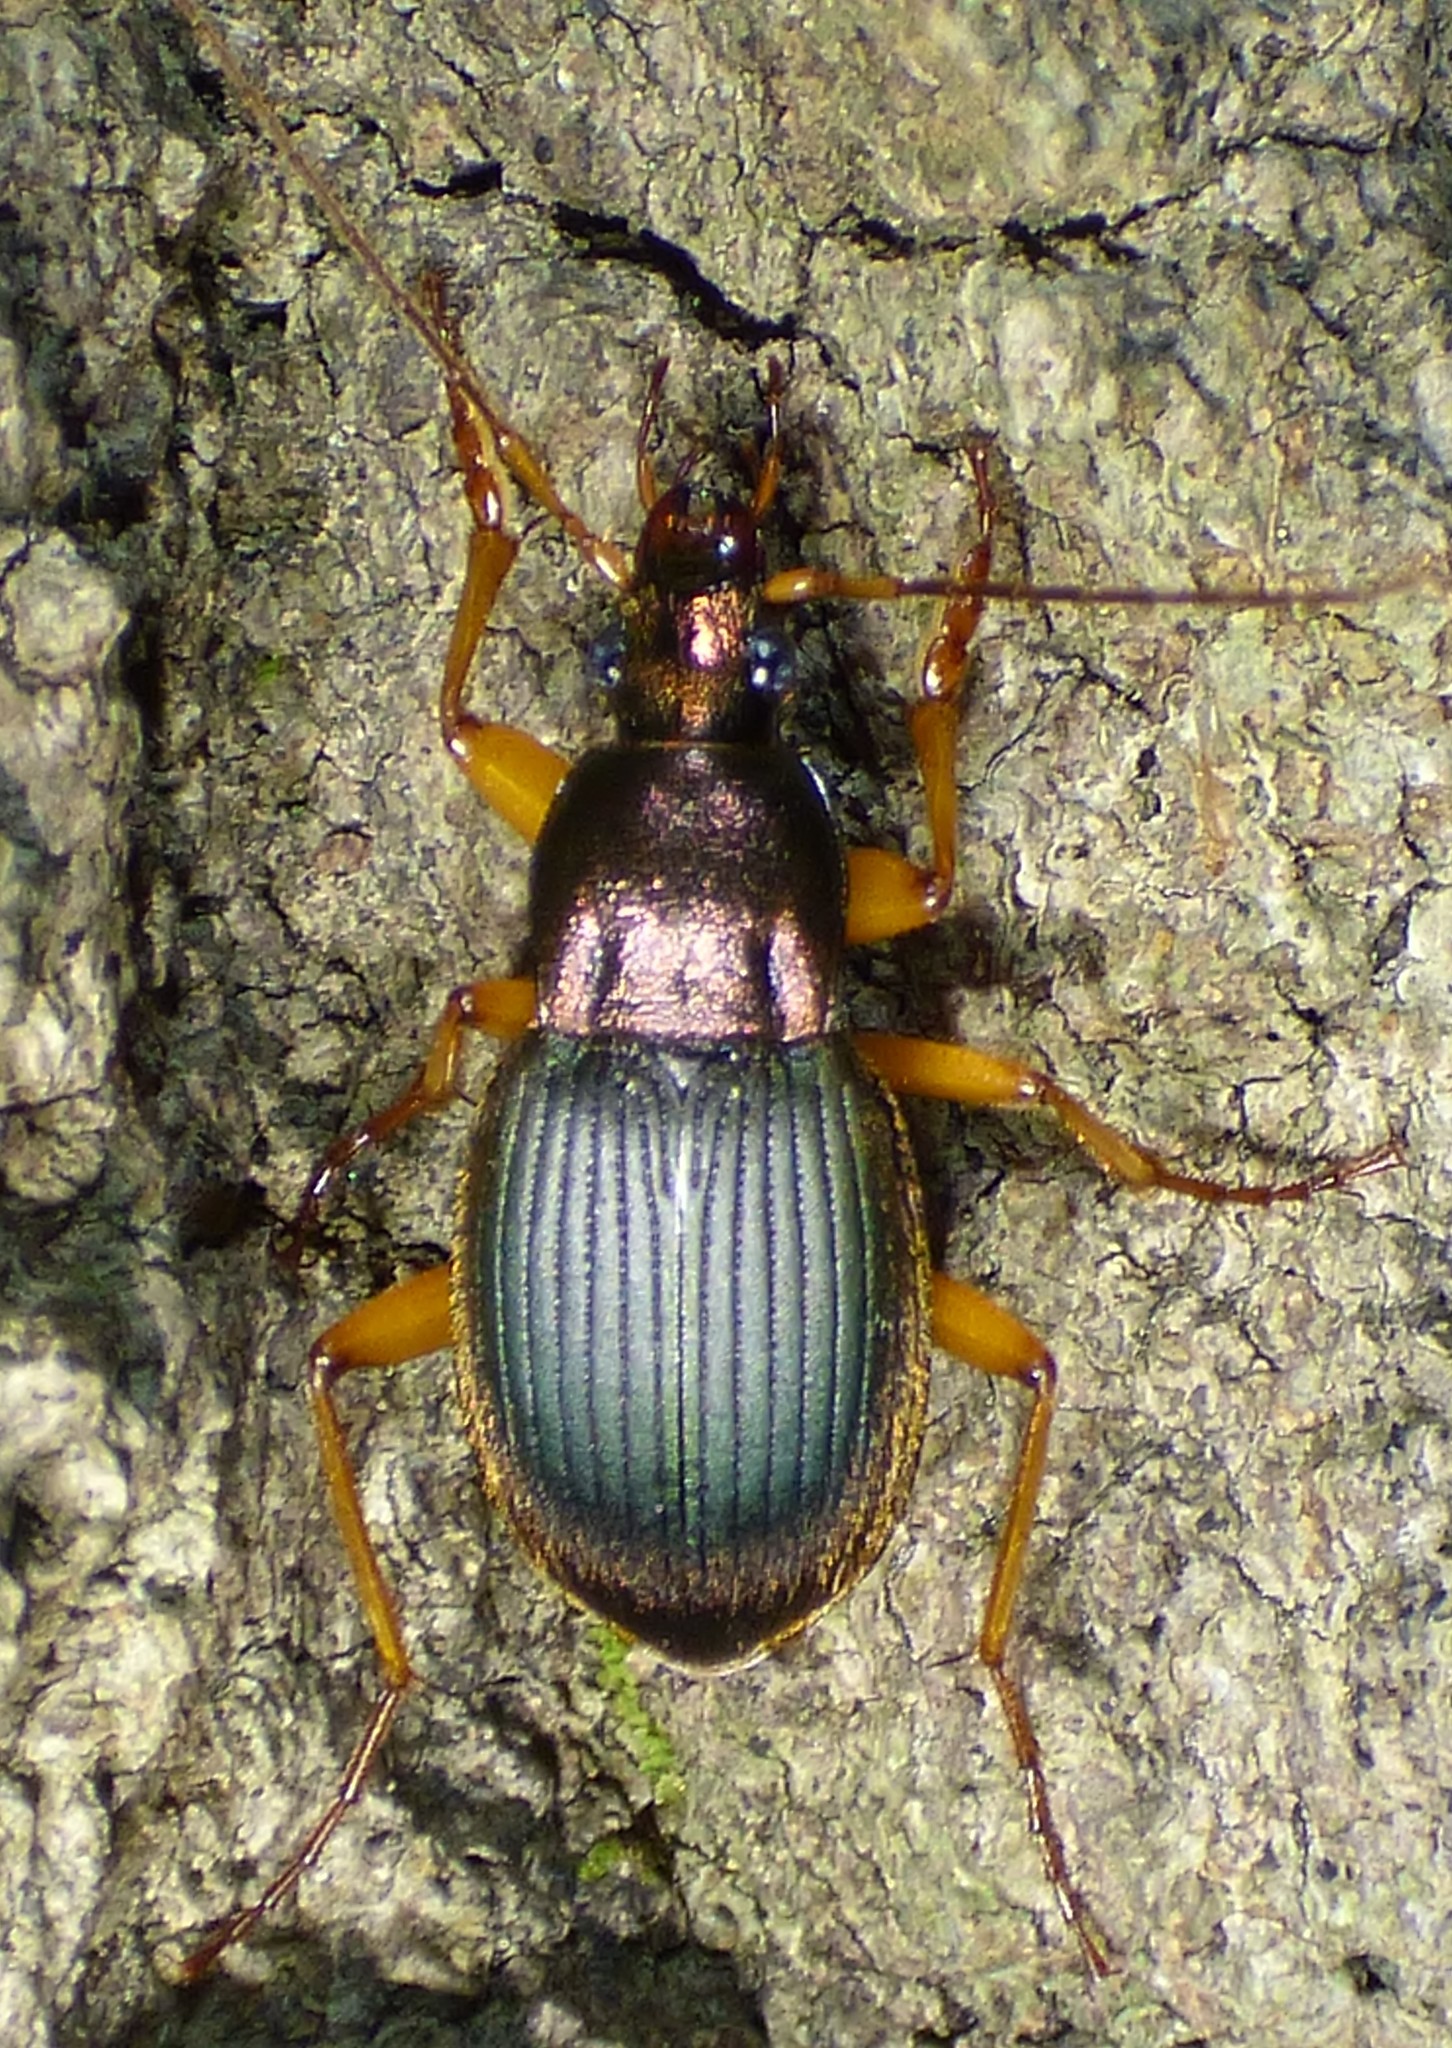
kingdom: Animalia
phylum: Arthropoda
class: Insecta
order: Coleoptera
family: Carabidae
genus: Chlaenius
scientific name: Chlaenius aestivus
